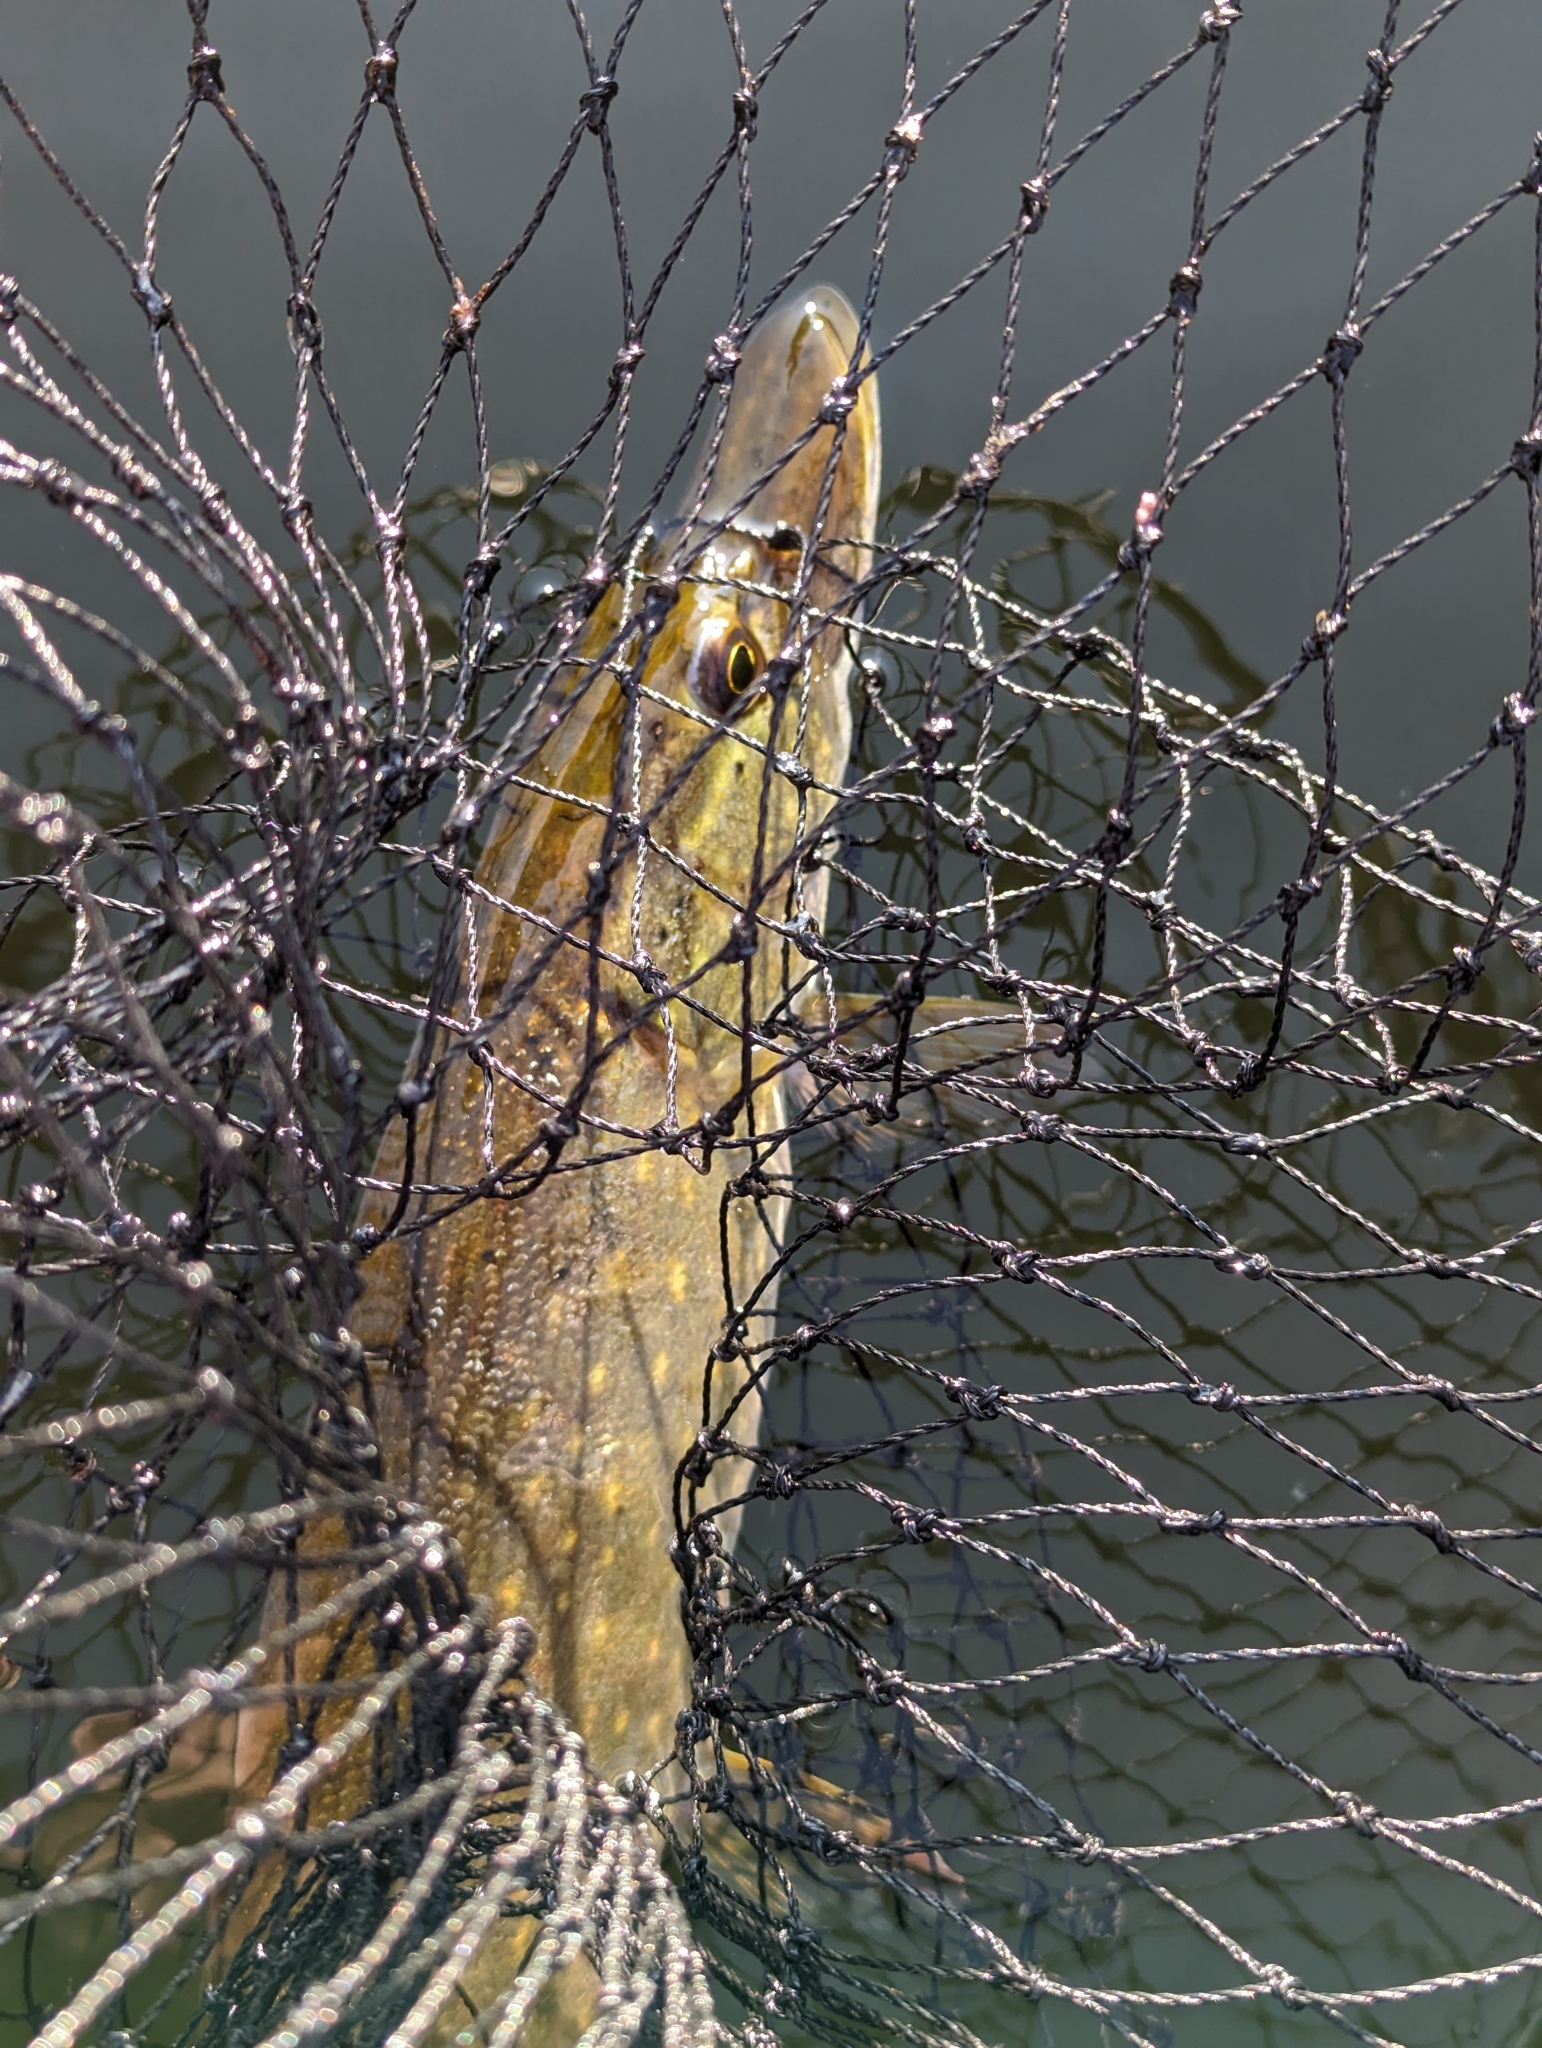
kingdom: Animalia
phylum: Chordata
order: Esociformes
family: Esocidae
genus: Esox
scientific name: Esox lucius
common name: Northern pike
